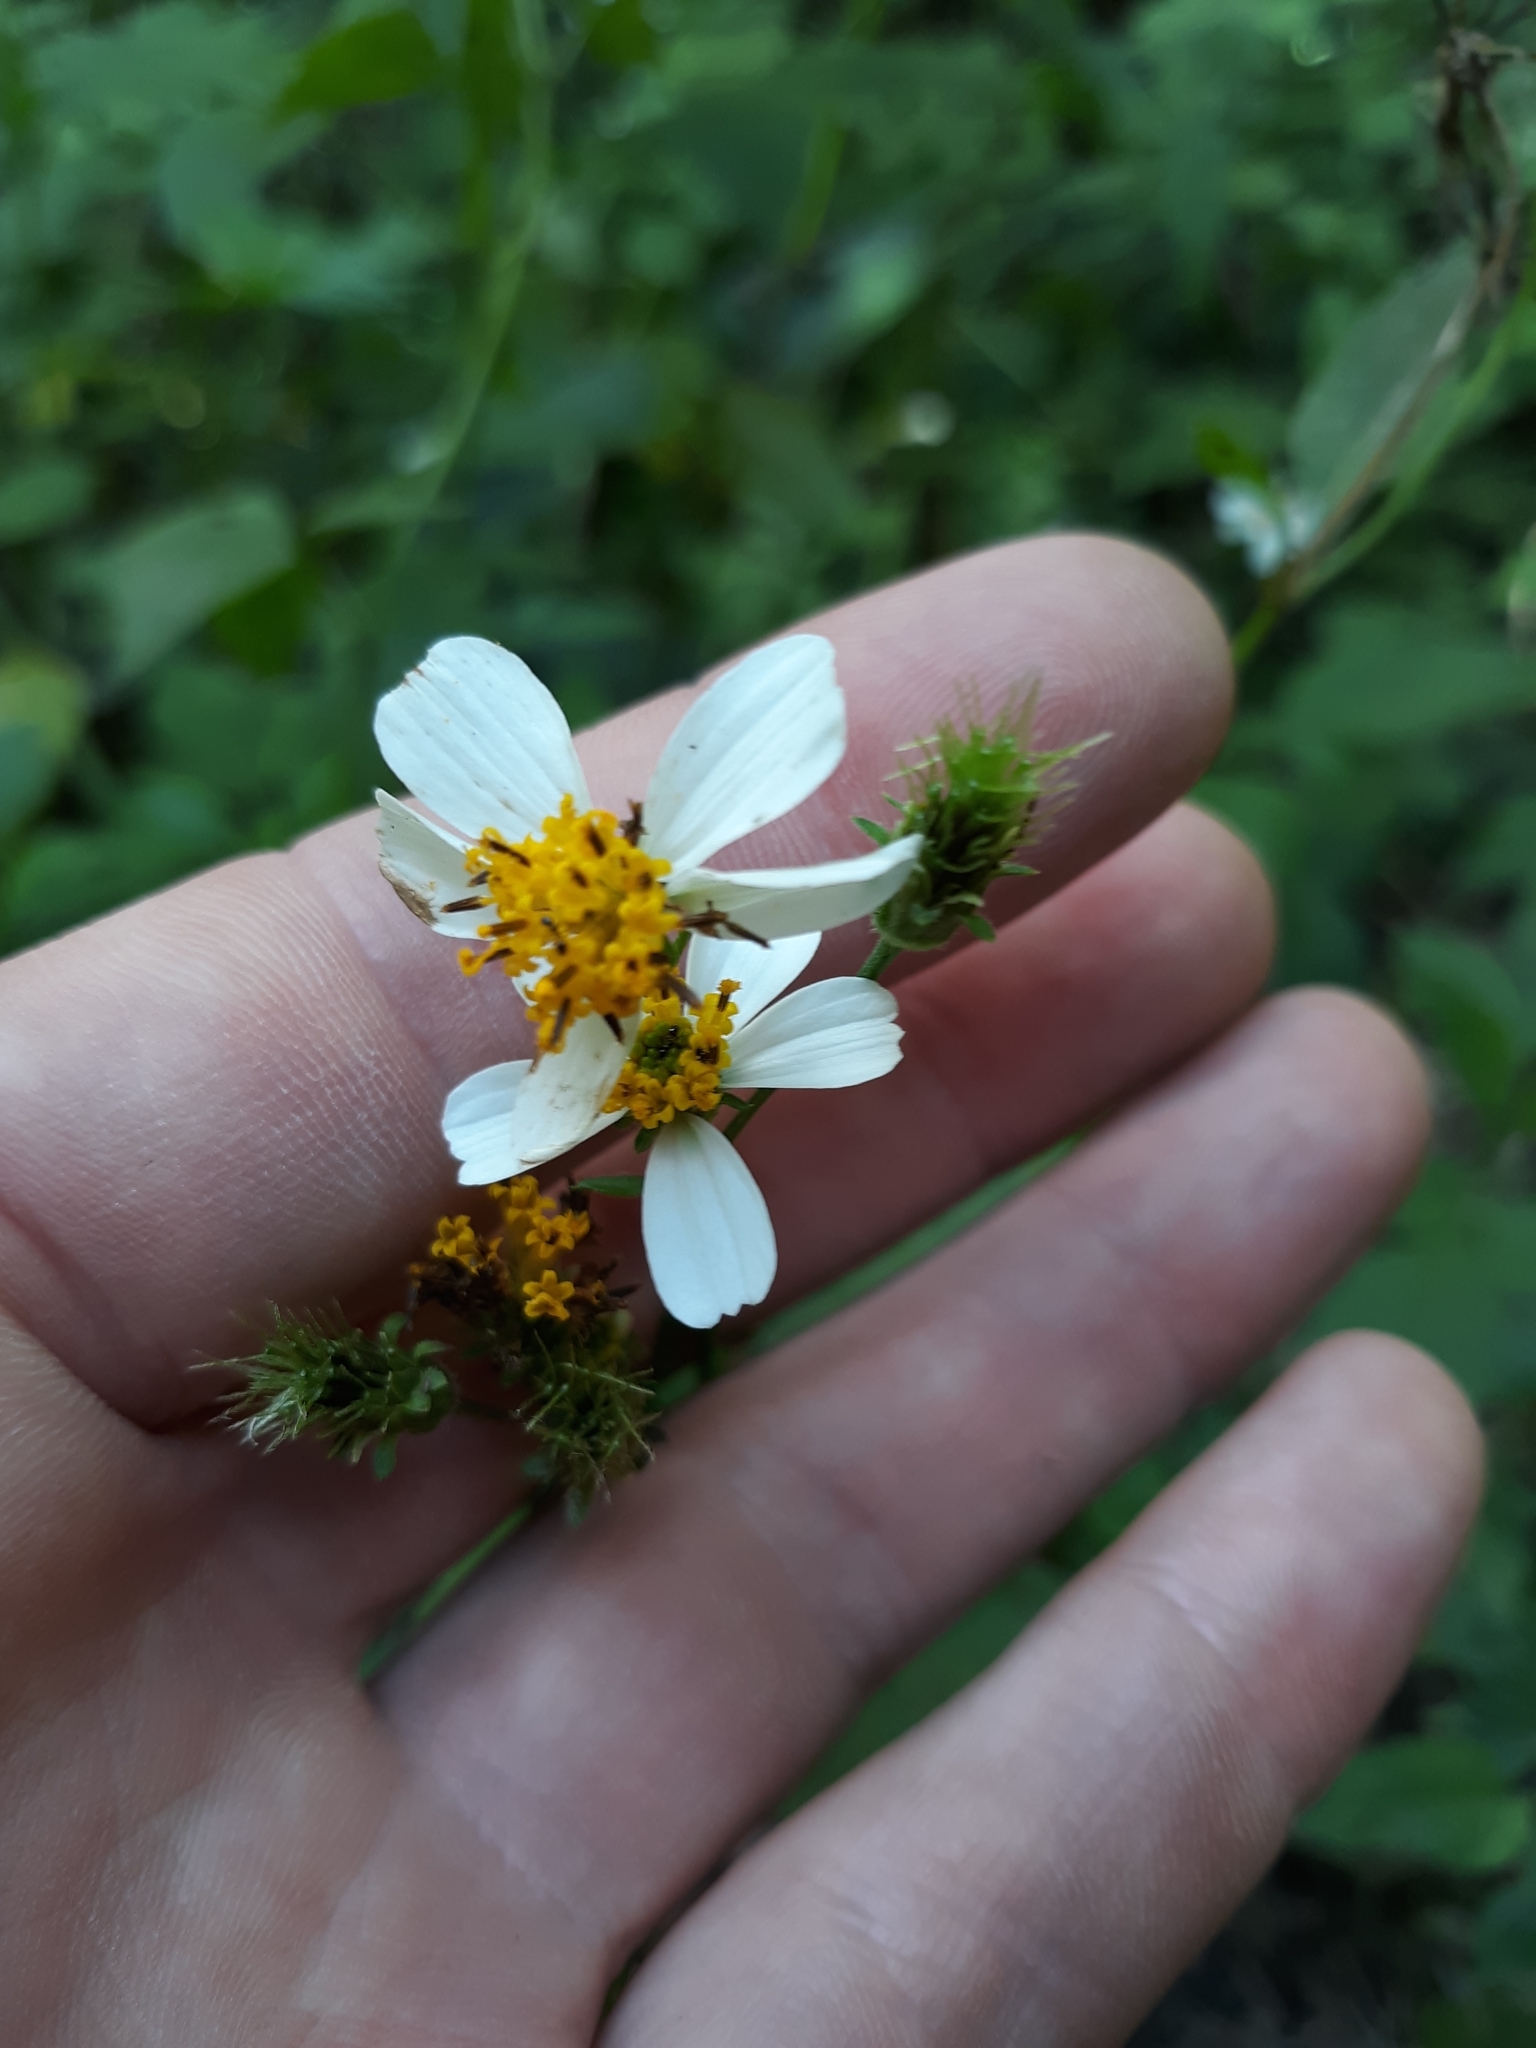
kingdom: Plantae
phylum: Tracheophyta
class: Magnoliopsida
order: Asterales
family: Asteraceae
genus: Bidens
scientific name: Bidens alba
